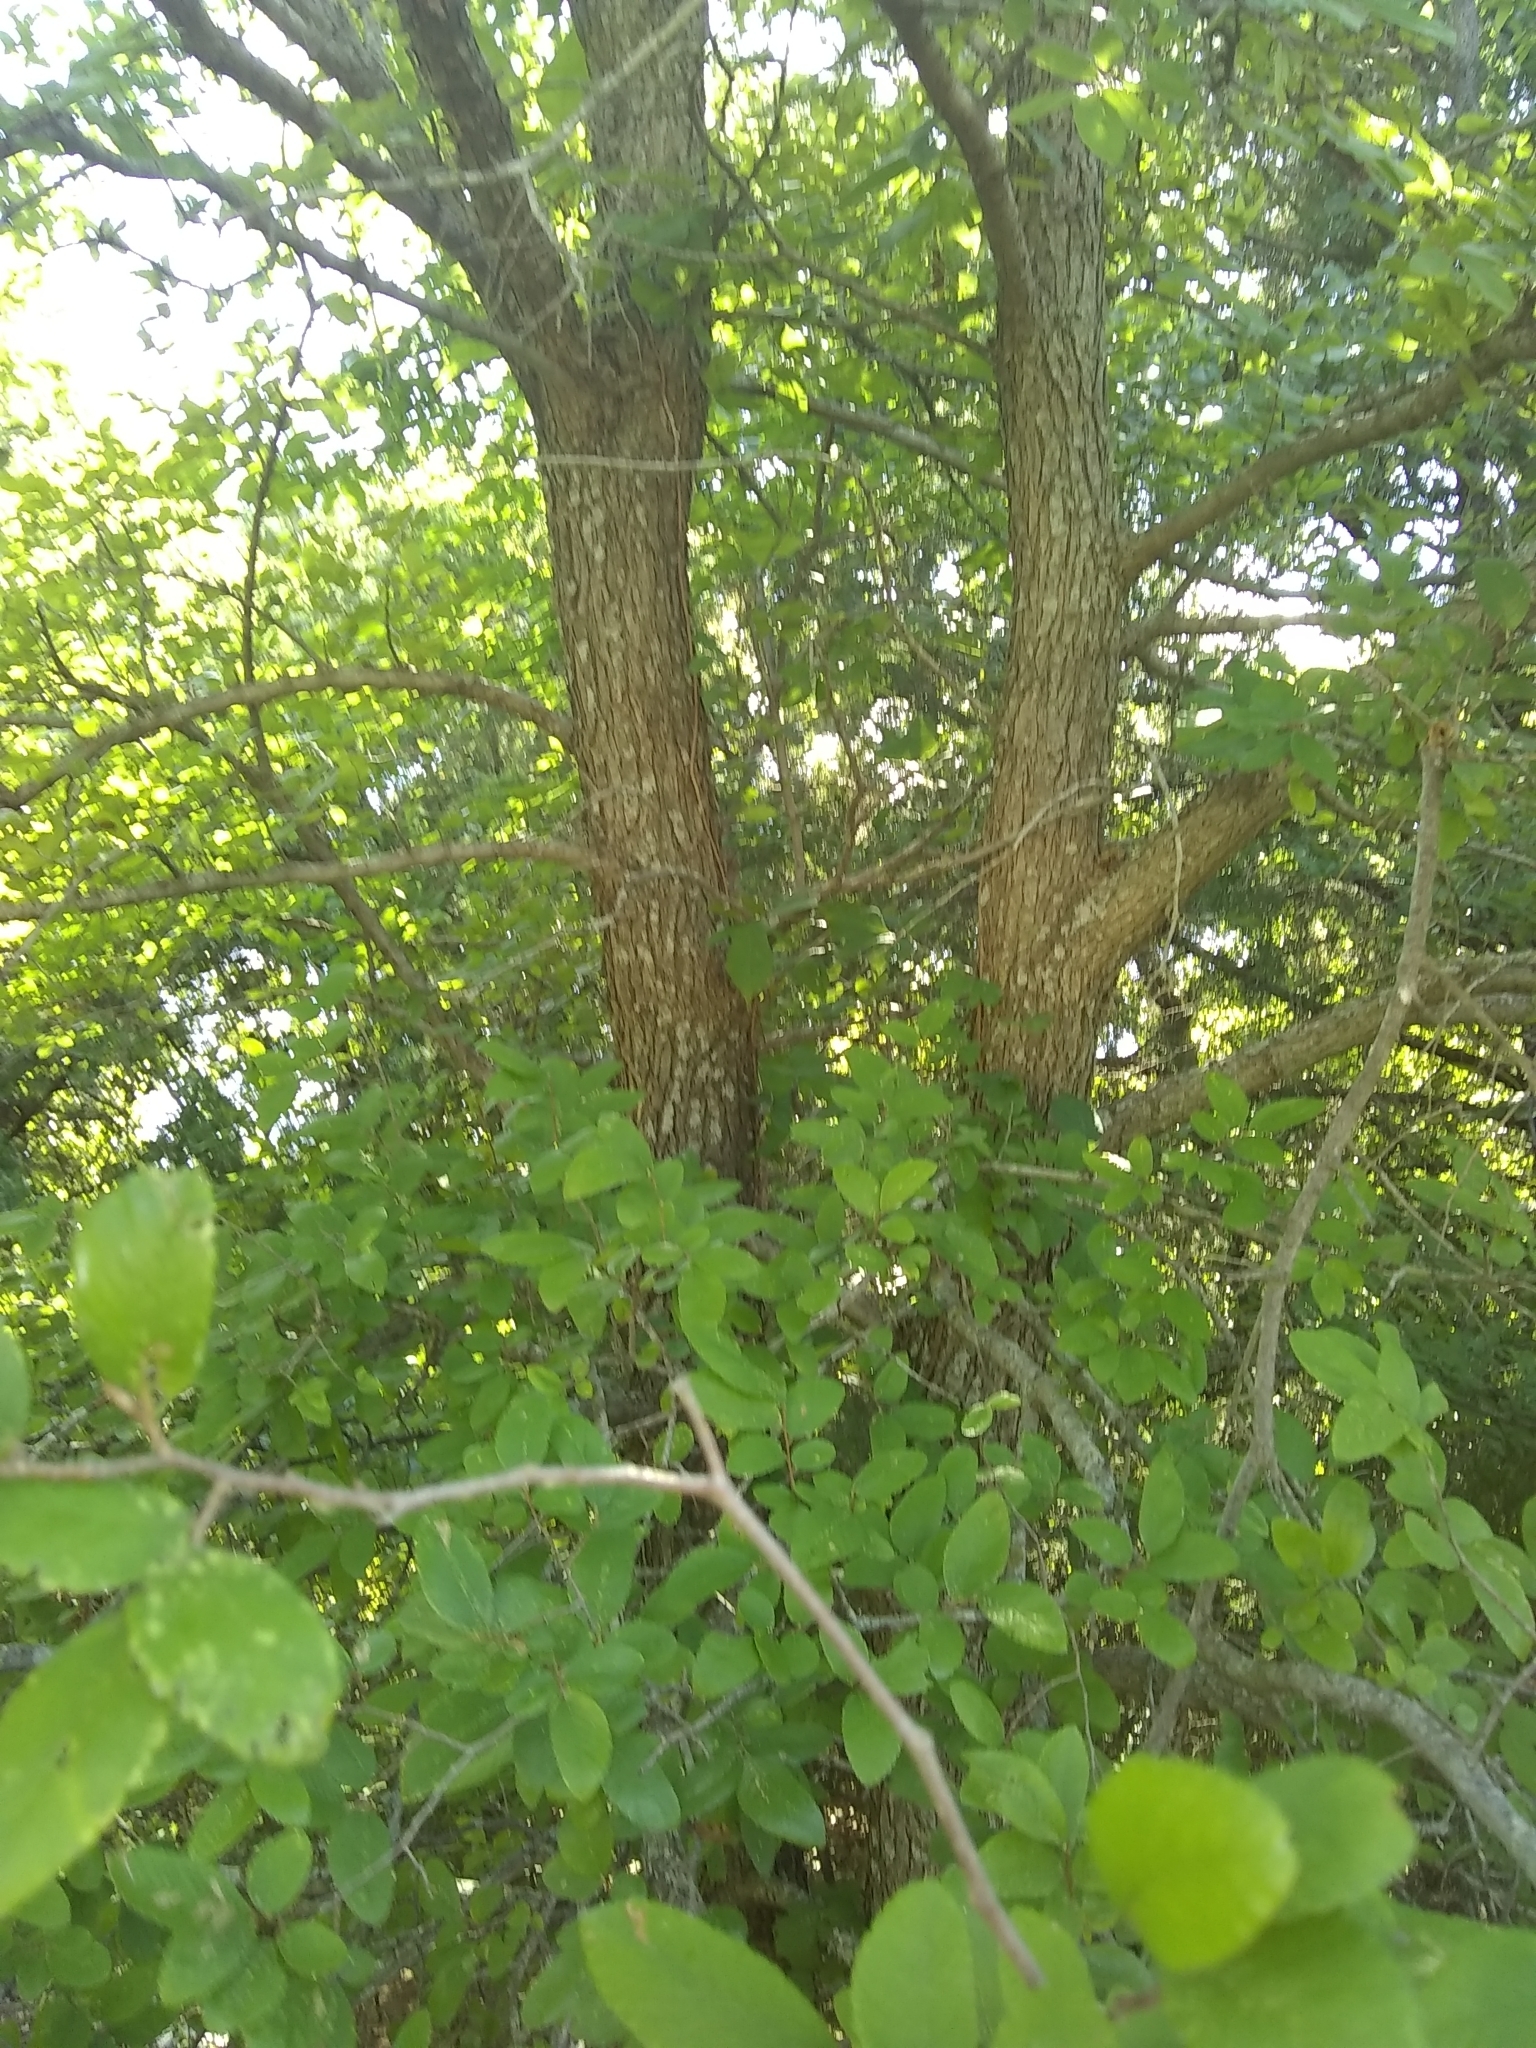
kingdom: Plantae
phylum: Tracheophyta
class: Magnoliopsida
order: Rosales
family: Ulmaceae
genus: Ulmus
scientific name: Ulmus crassifolia
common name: Basket elm
